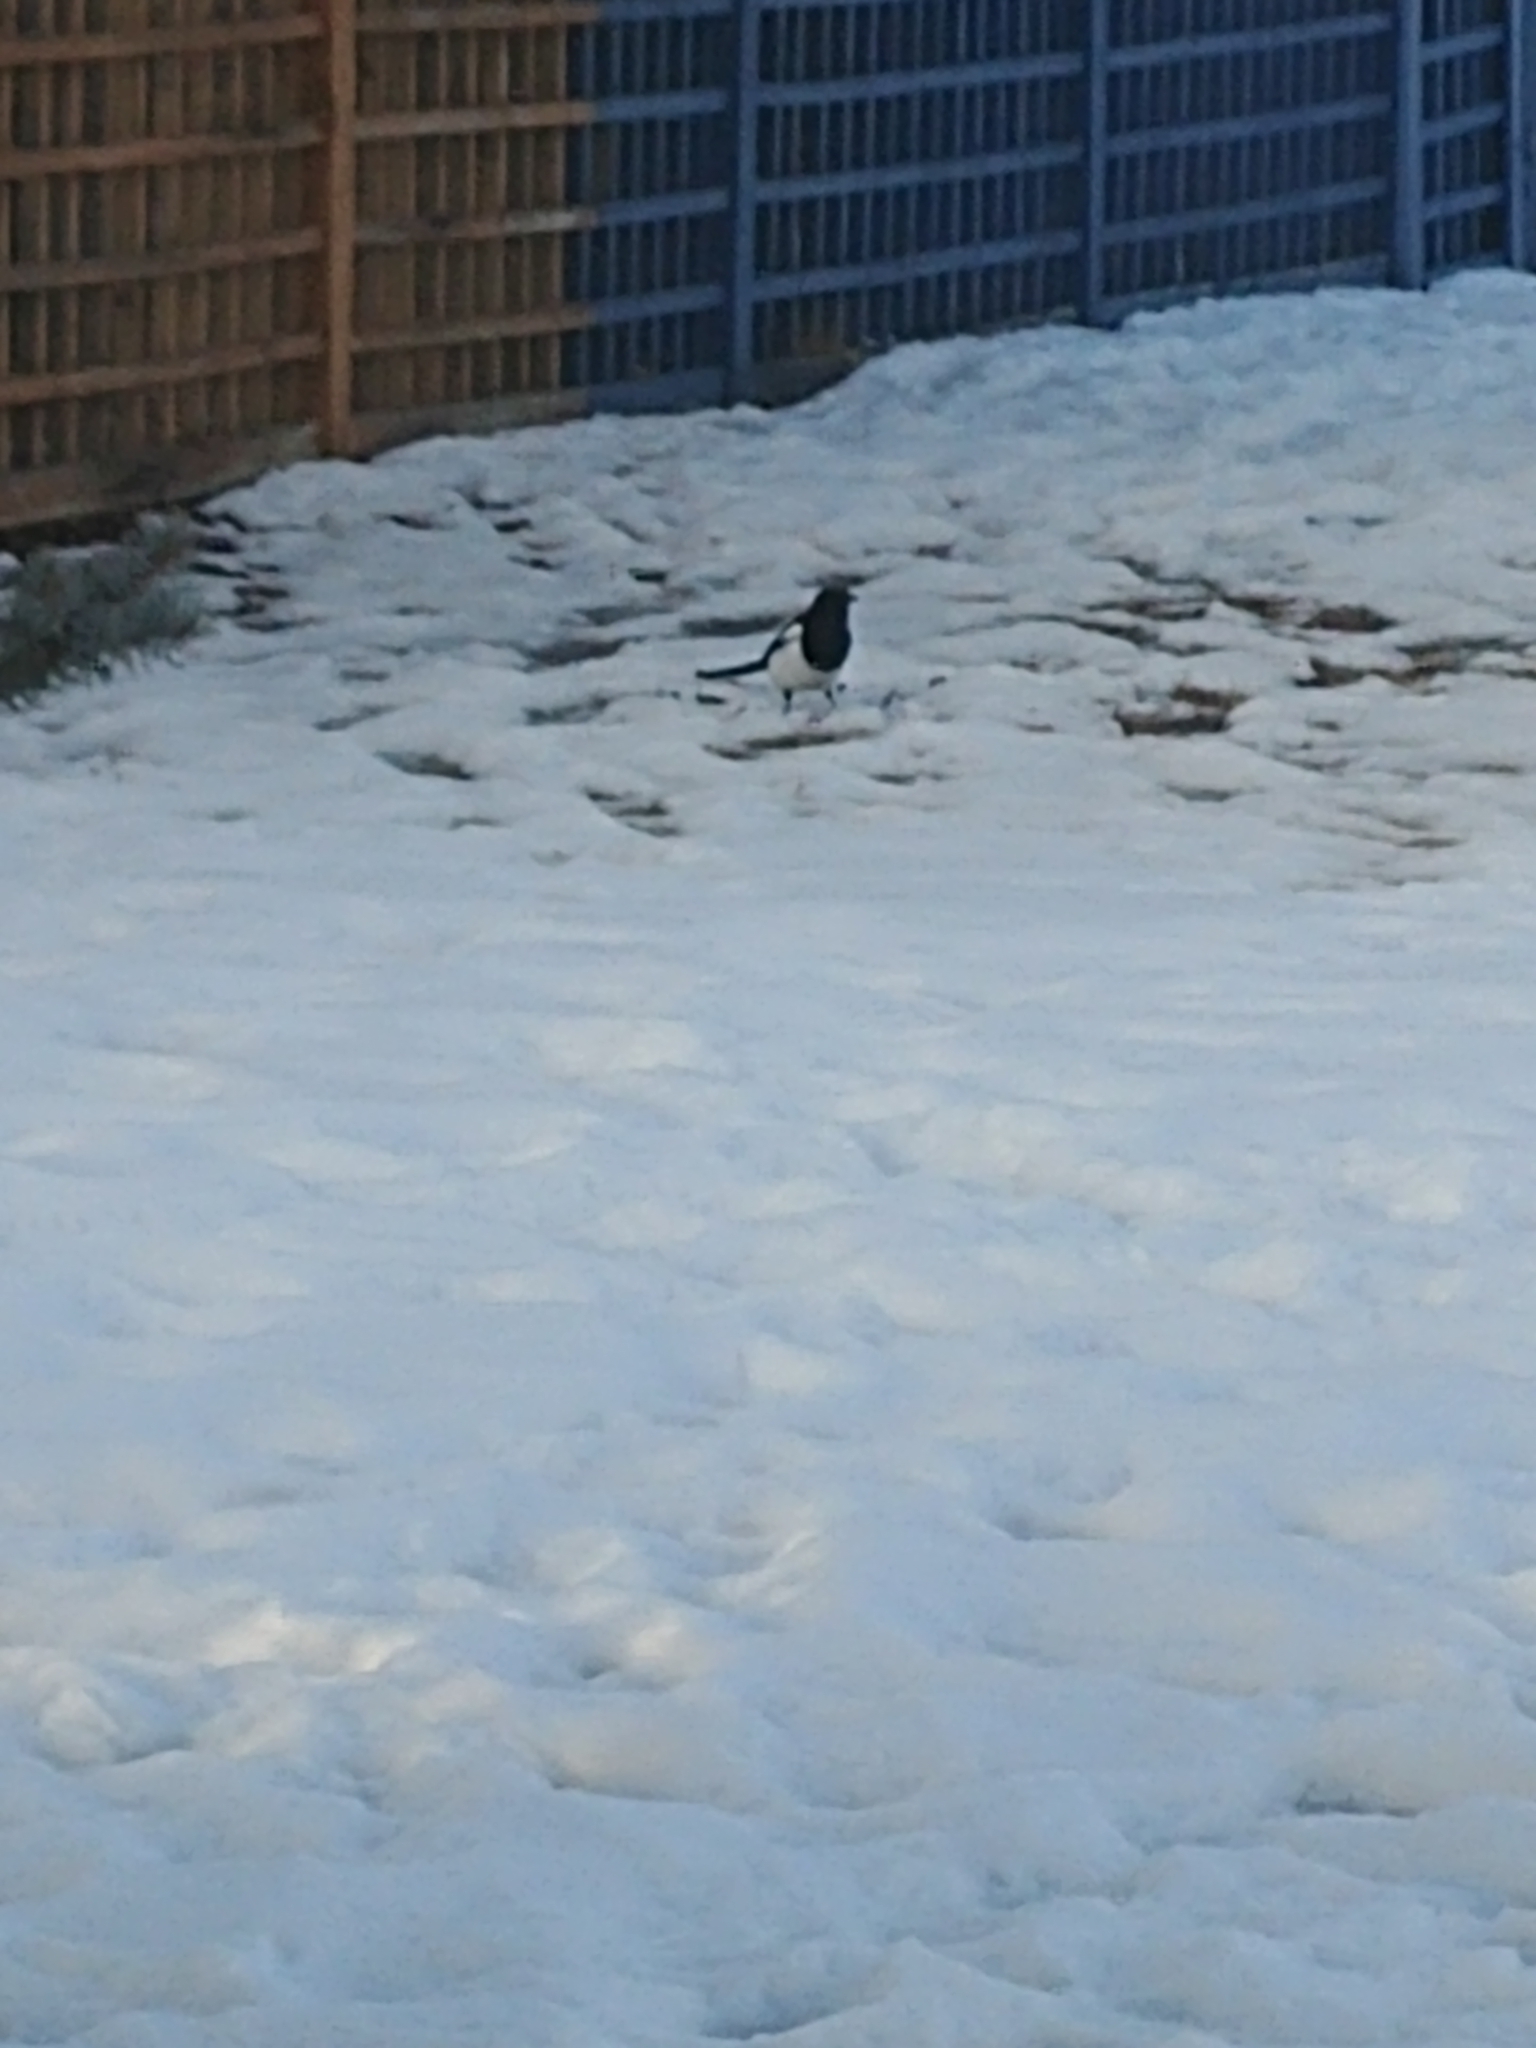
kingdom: Animalia
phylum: Chordata
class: Aves
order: Passeriformes
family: Corvidae
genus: Pica
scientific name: Pica hudsonia
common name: Black-billed magpie
